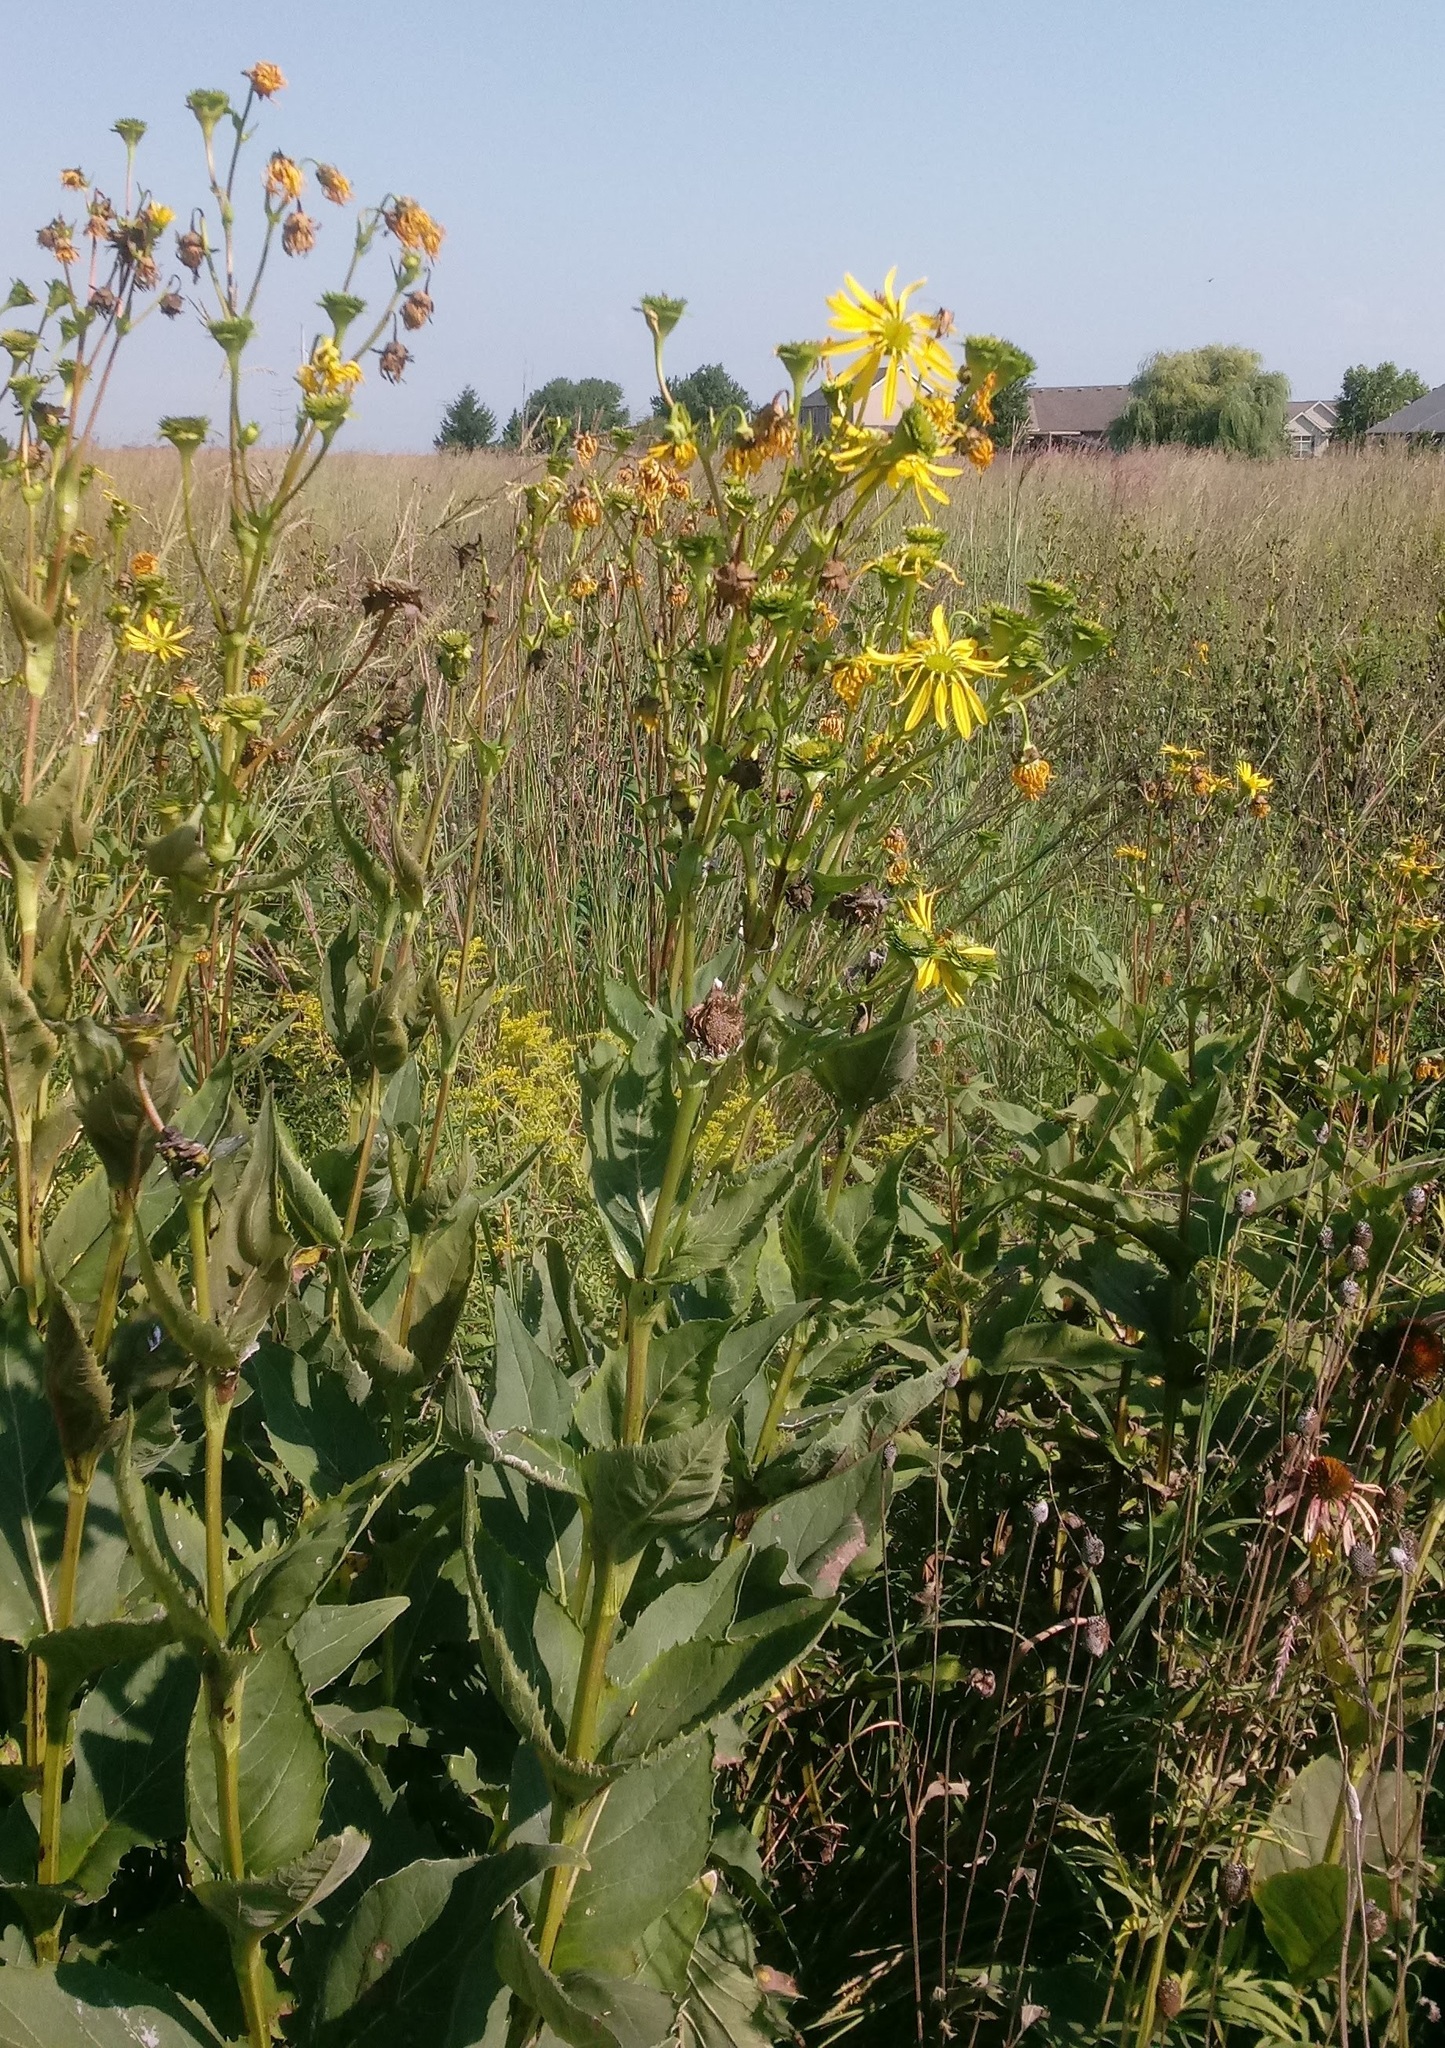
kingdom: Plantae
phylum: Tracheophyta
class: Magnoliopsida
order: Asterales
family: Asteraceae
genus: Silphium
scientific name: Silphium integrifolium
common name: Whole-leaf rosinweed
